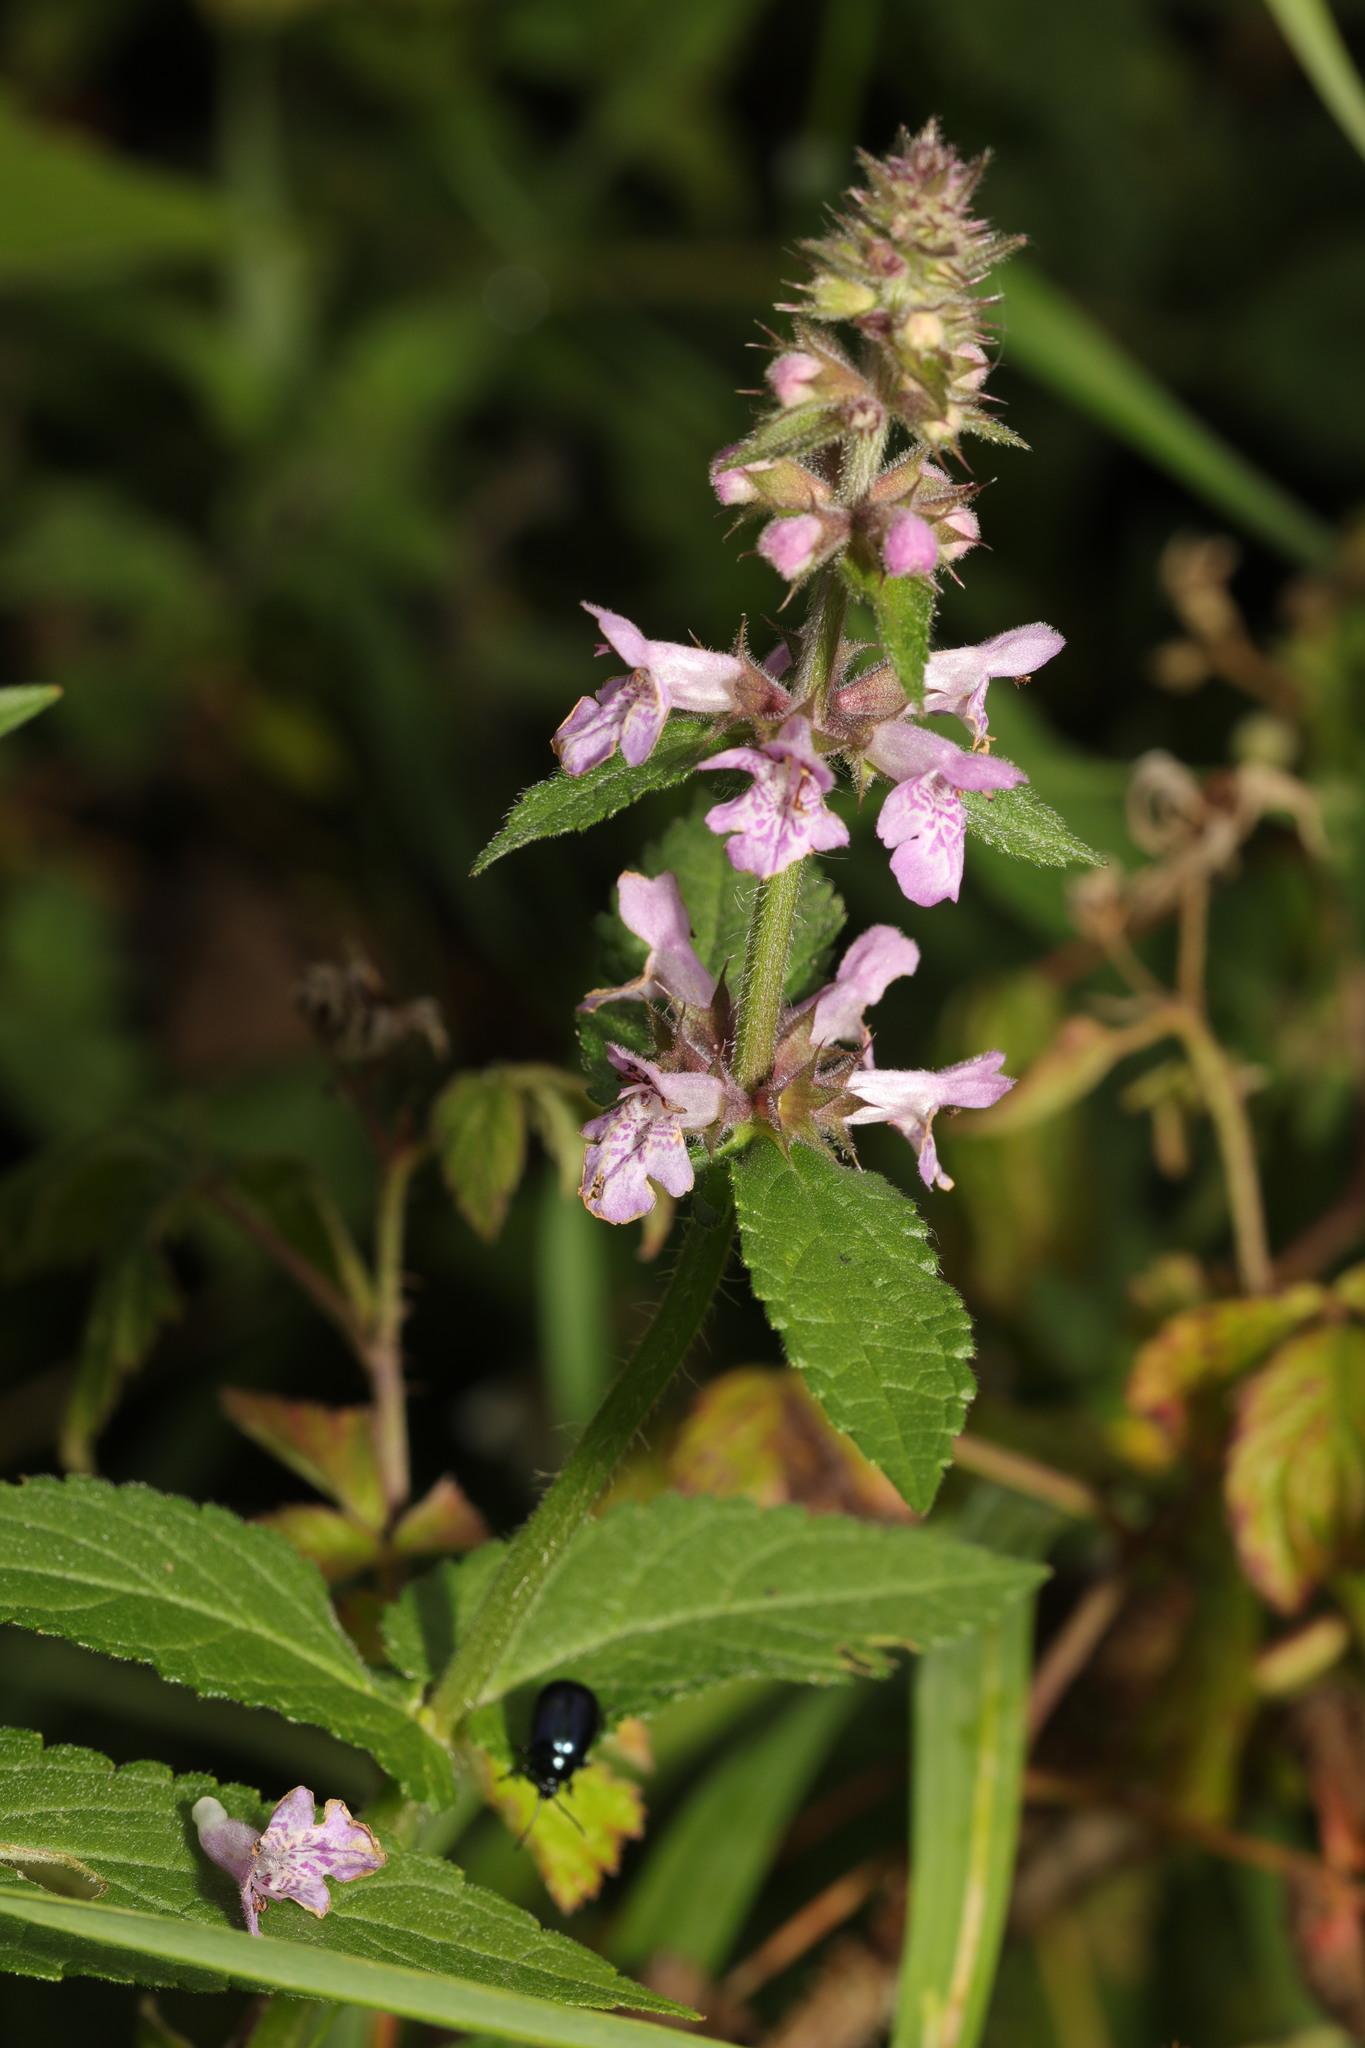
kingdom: Plantae
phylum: Tracheophyta
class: Magnoliopsida
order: Lamiales
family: Lamiaceae
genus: Stachys
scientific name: Stachys palustris
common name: Marsh woundwort
